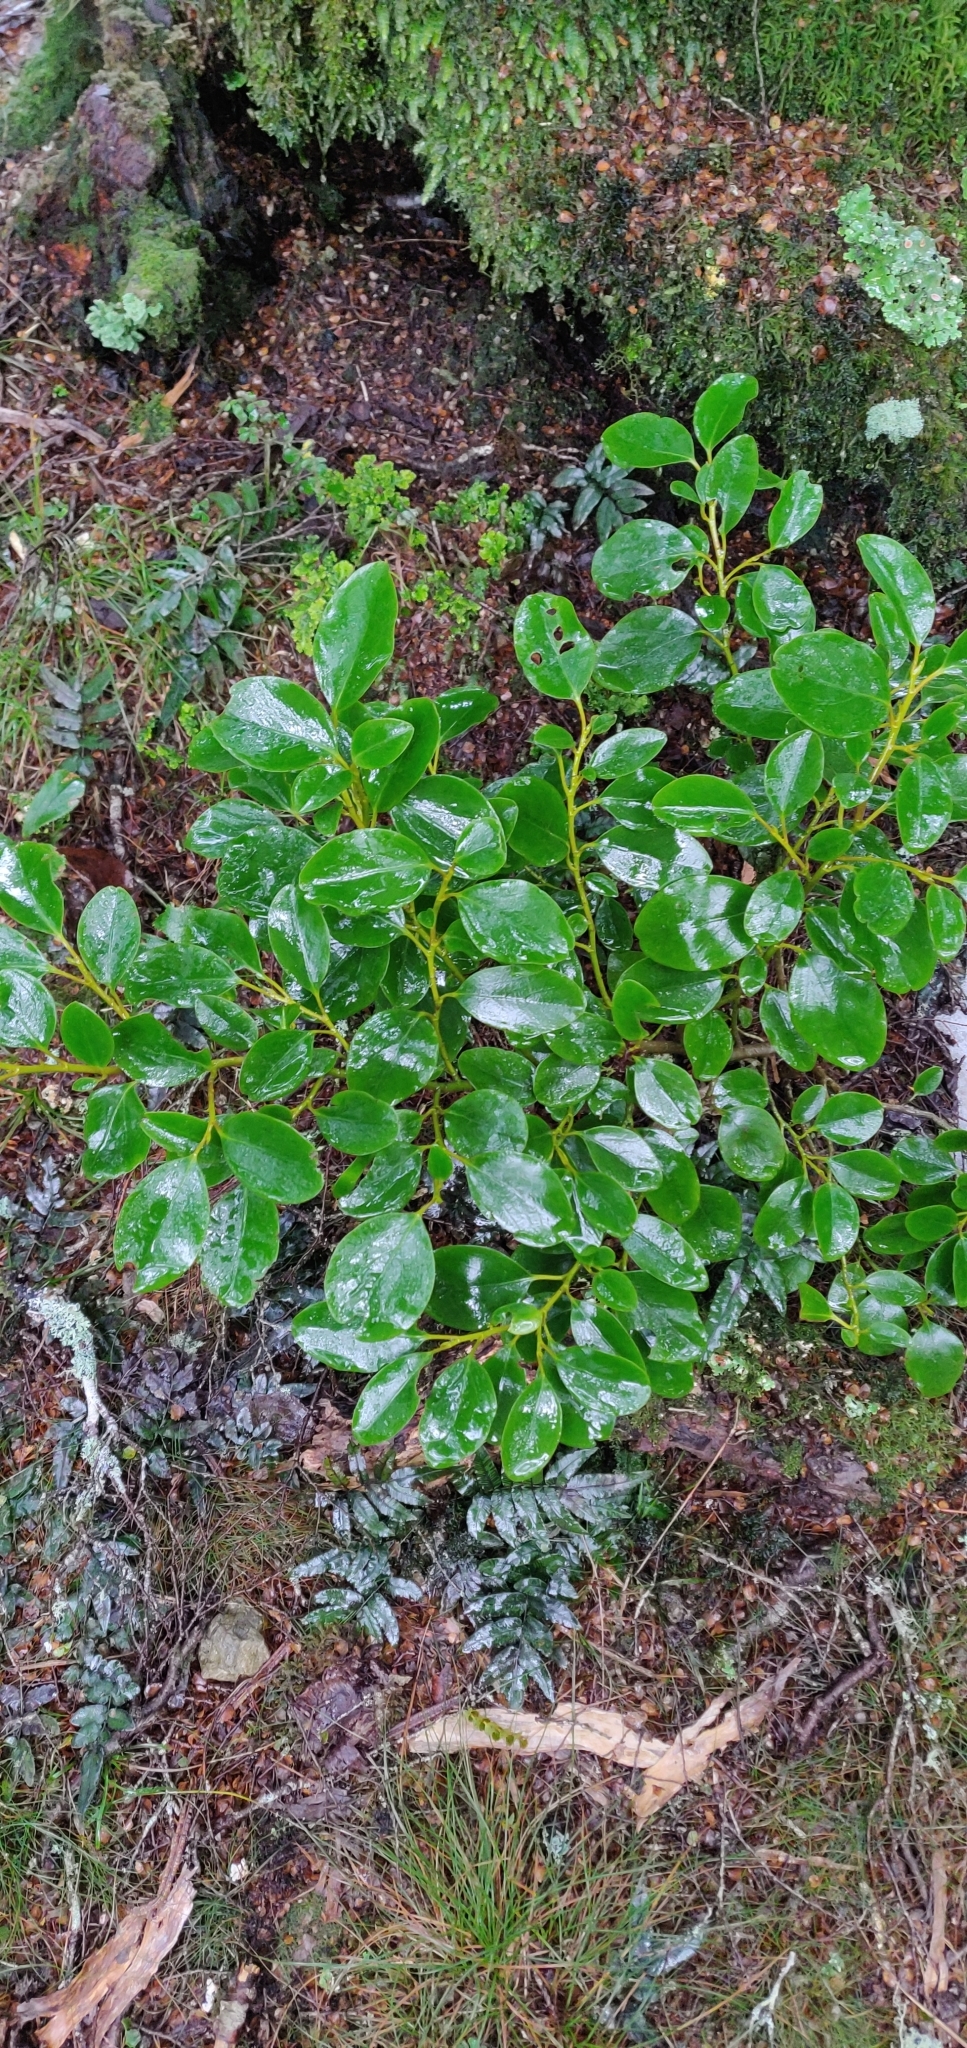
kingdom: Plantae
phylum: Tracheophyta
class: Magnoliopsida
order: Apiales
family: Griseliniaceae
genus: Griselinia
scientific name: Griselinia littoralis
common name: New zealand broadleaf
